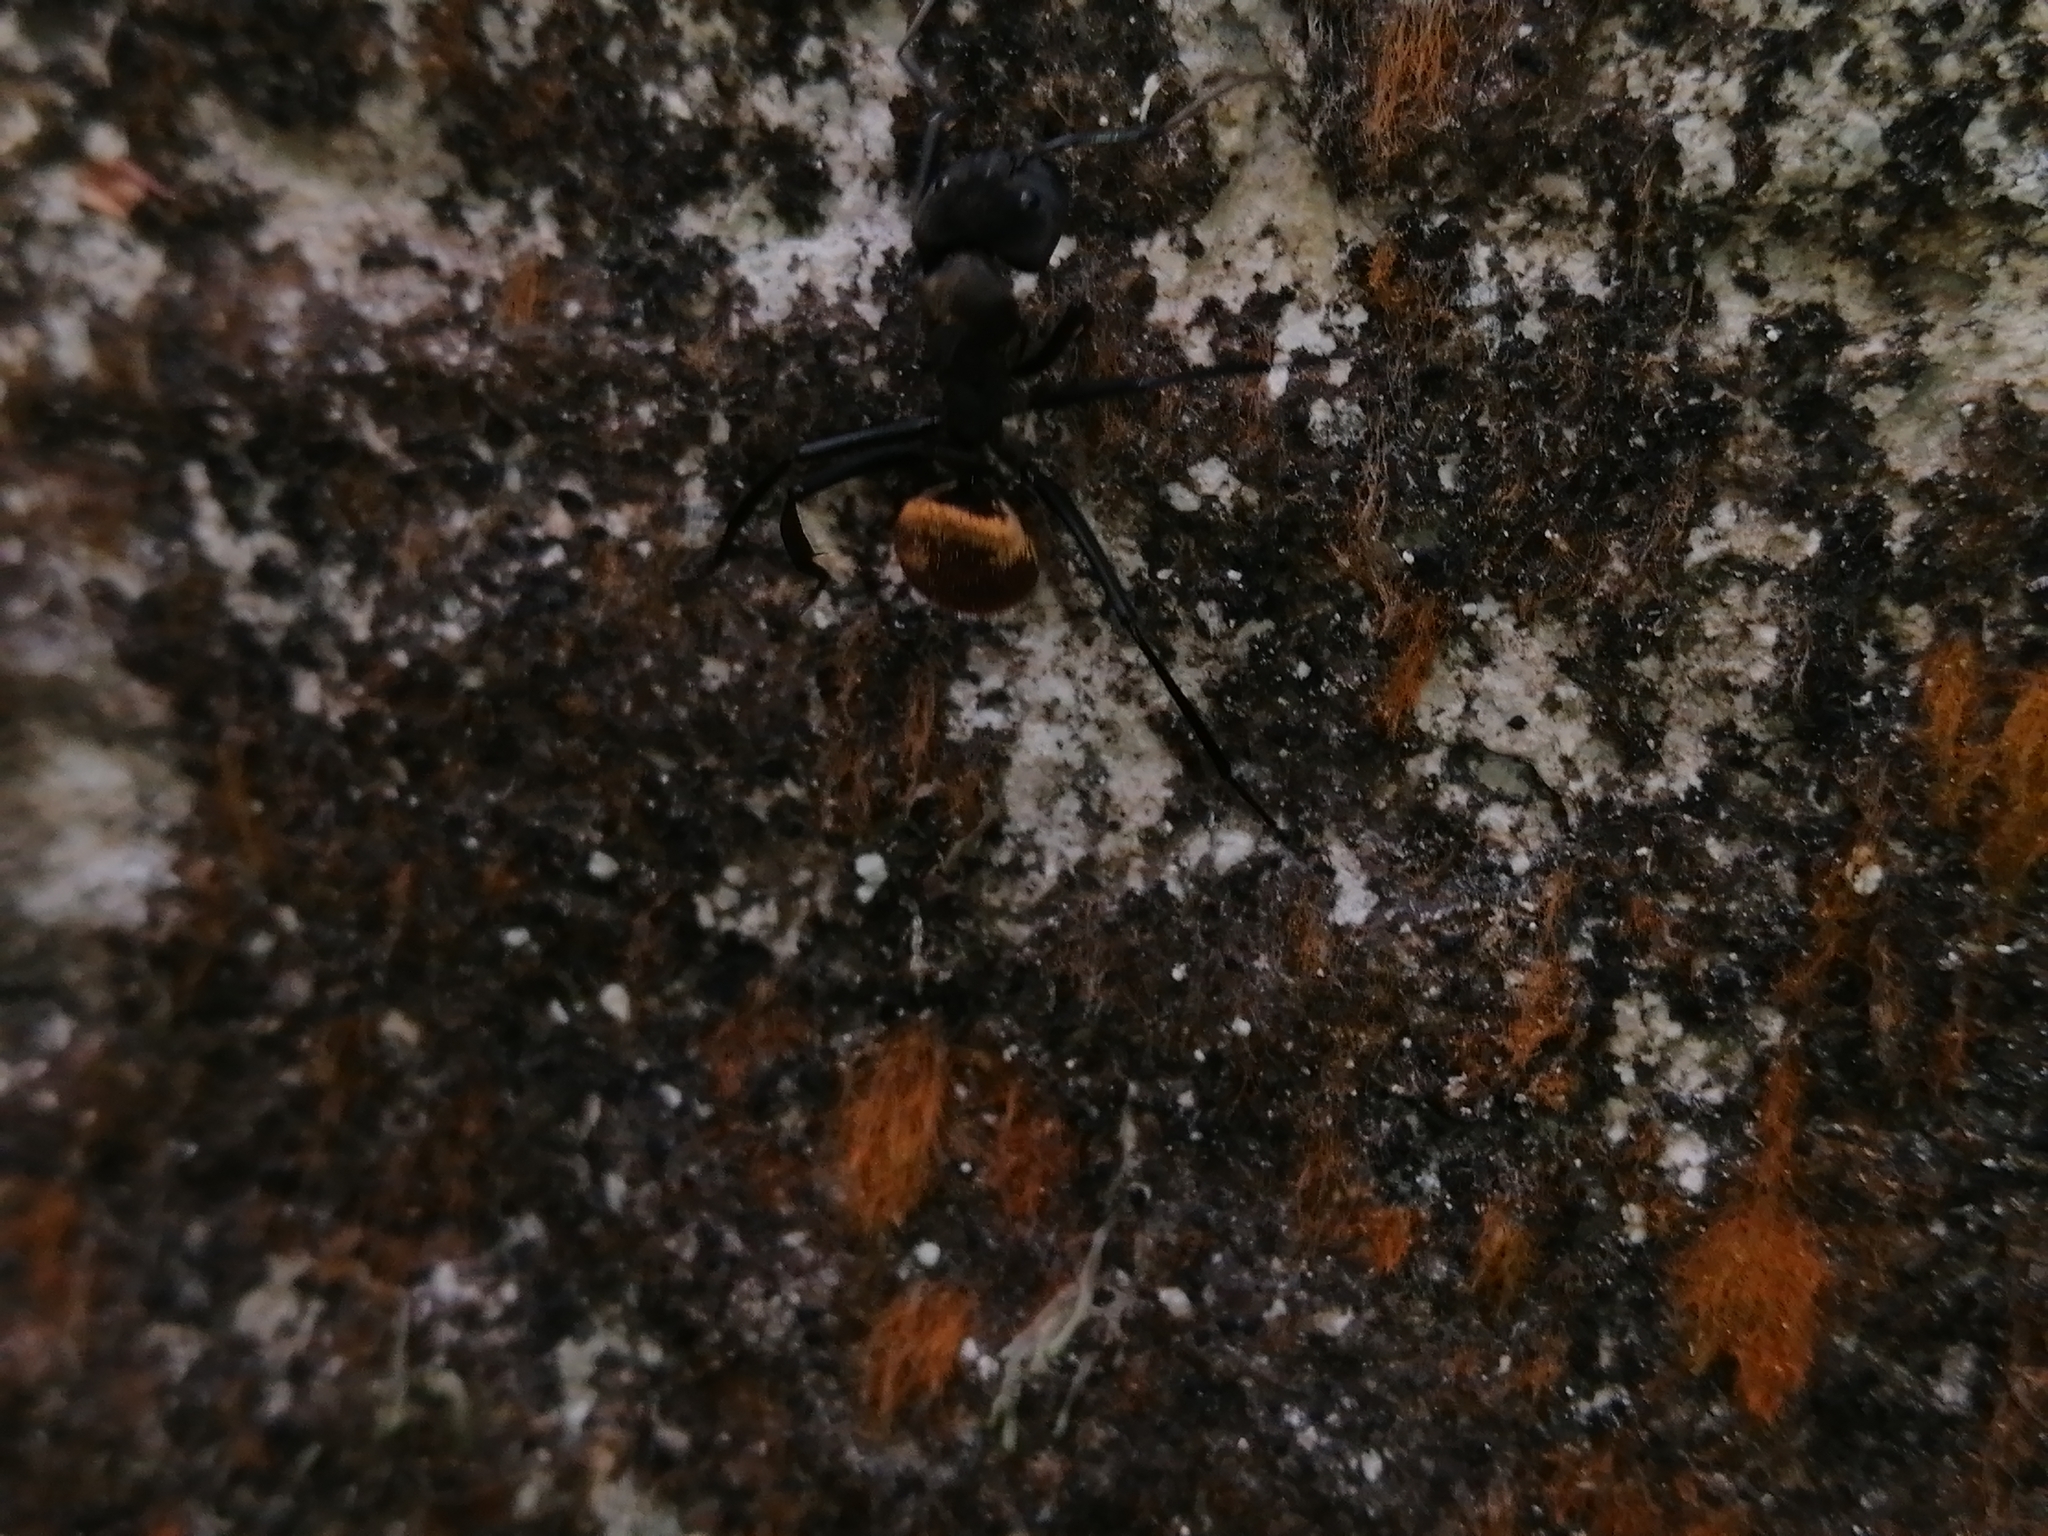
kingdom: Animalia
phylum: Arthropoda
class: Insecta
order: Hymenoptera
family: Formicidae
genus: Camponotus
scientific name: Camponotus sericeiventris
